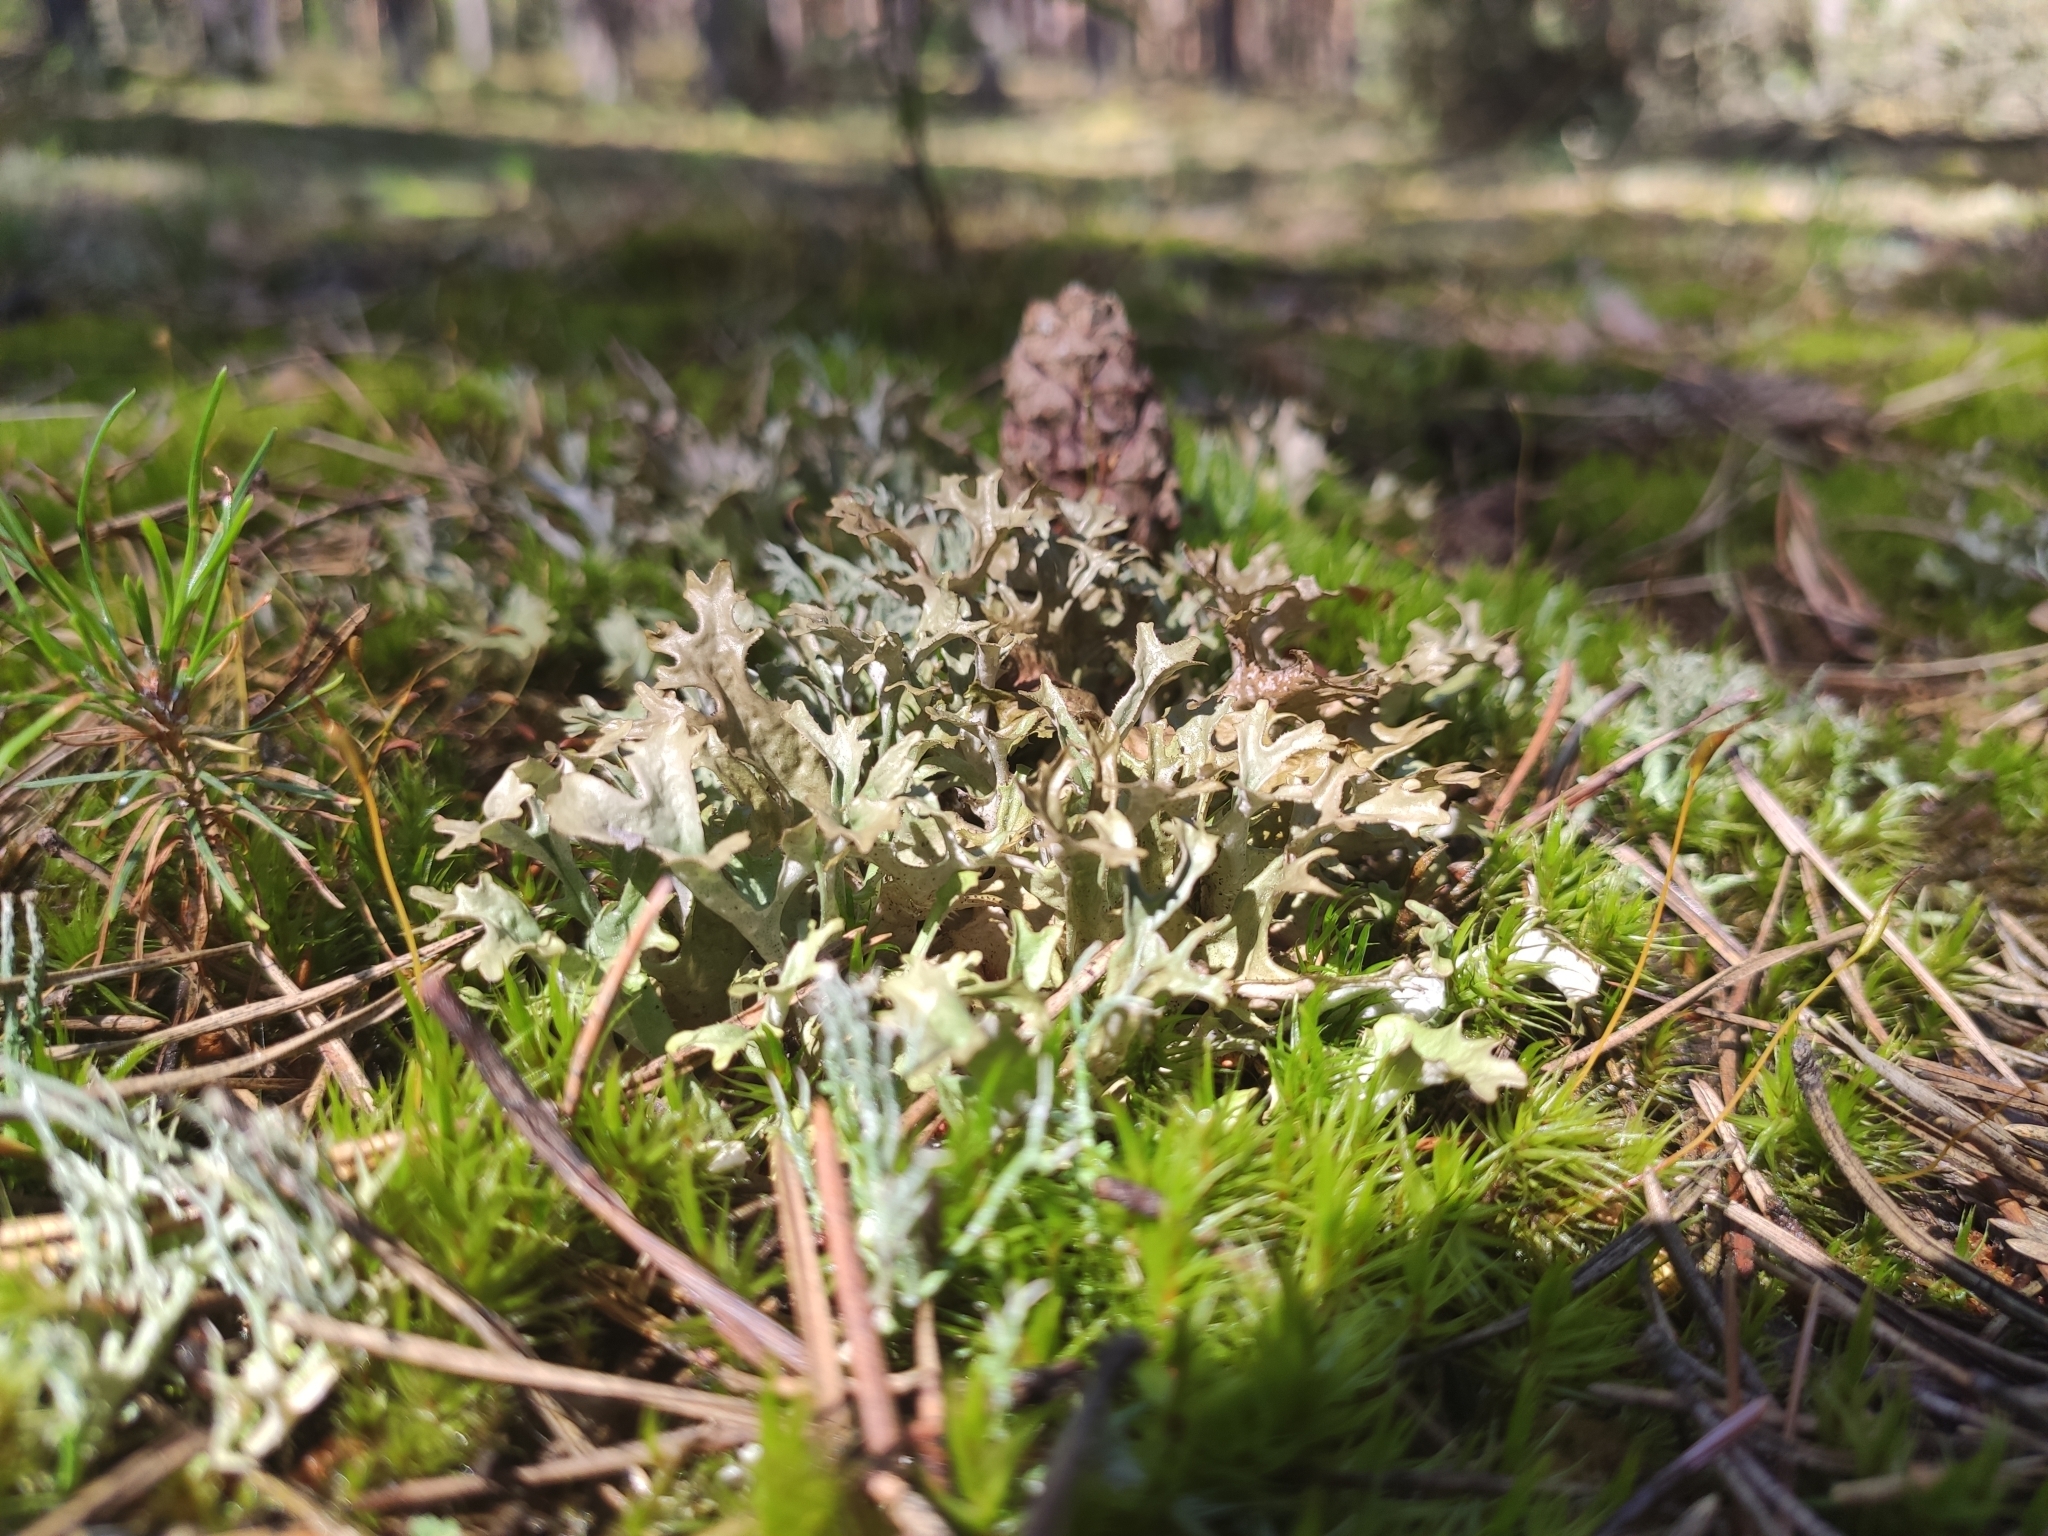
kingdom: Fungi
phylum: Ascomycota
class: Lecanoromycetes
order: Lecanorales
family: Parmeliaceae
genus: Cetraria
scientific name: Cetraria islandica
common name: Iceland lichen
